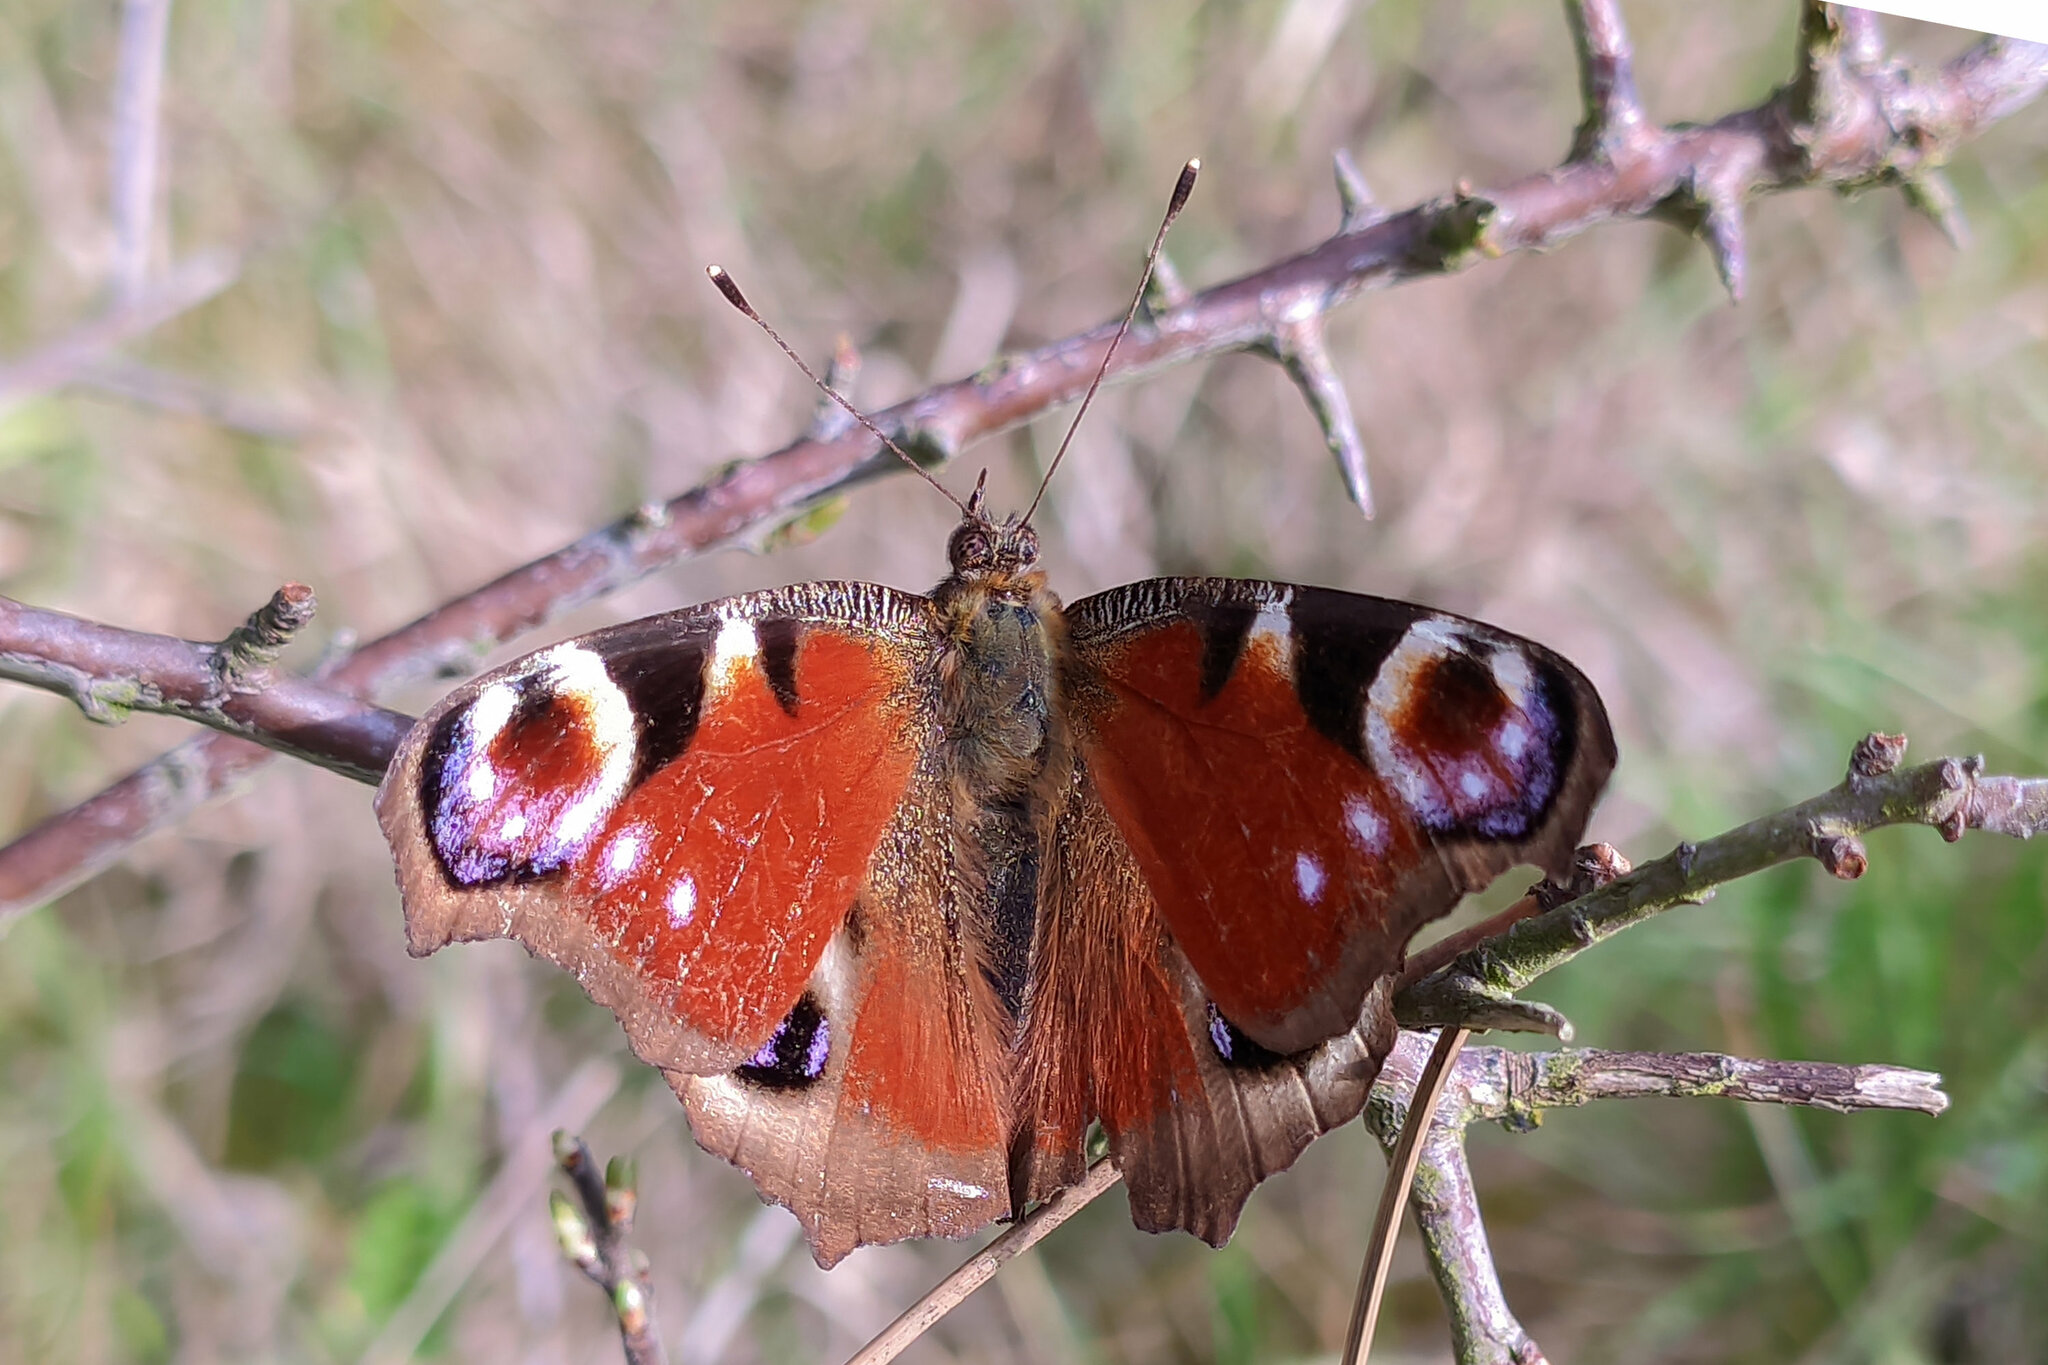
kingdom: Animalia
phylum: Arthropoda
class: Insecta
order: Lepidoptera
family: Nymphalidae
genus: Aglais
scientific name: Aglais io
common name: Peacock
